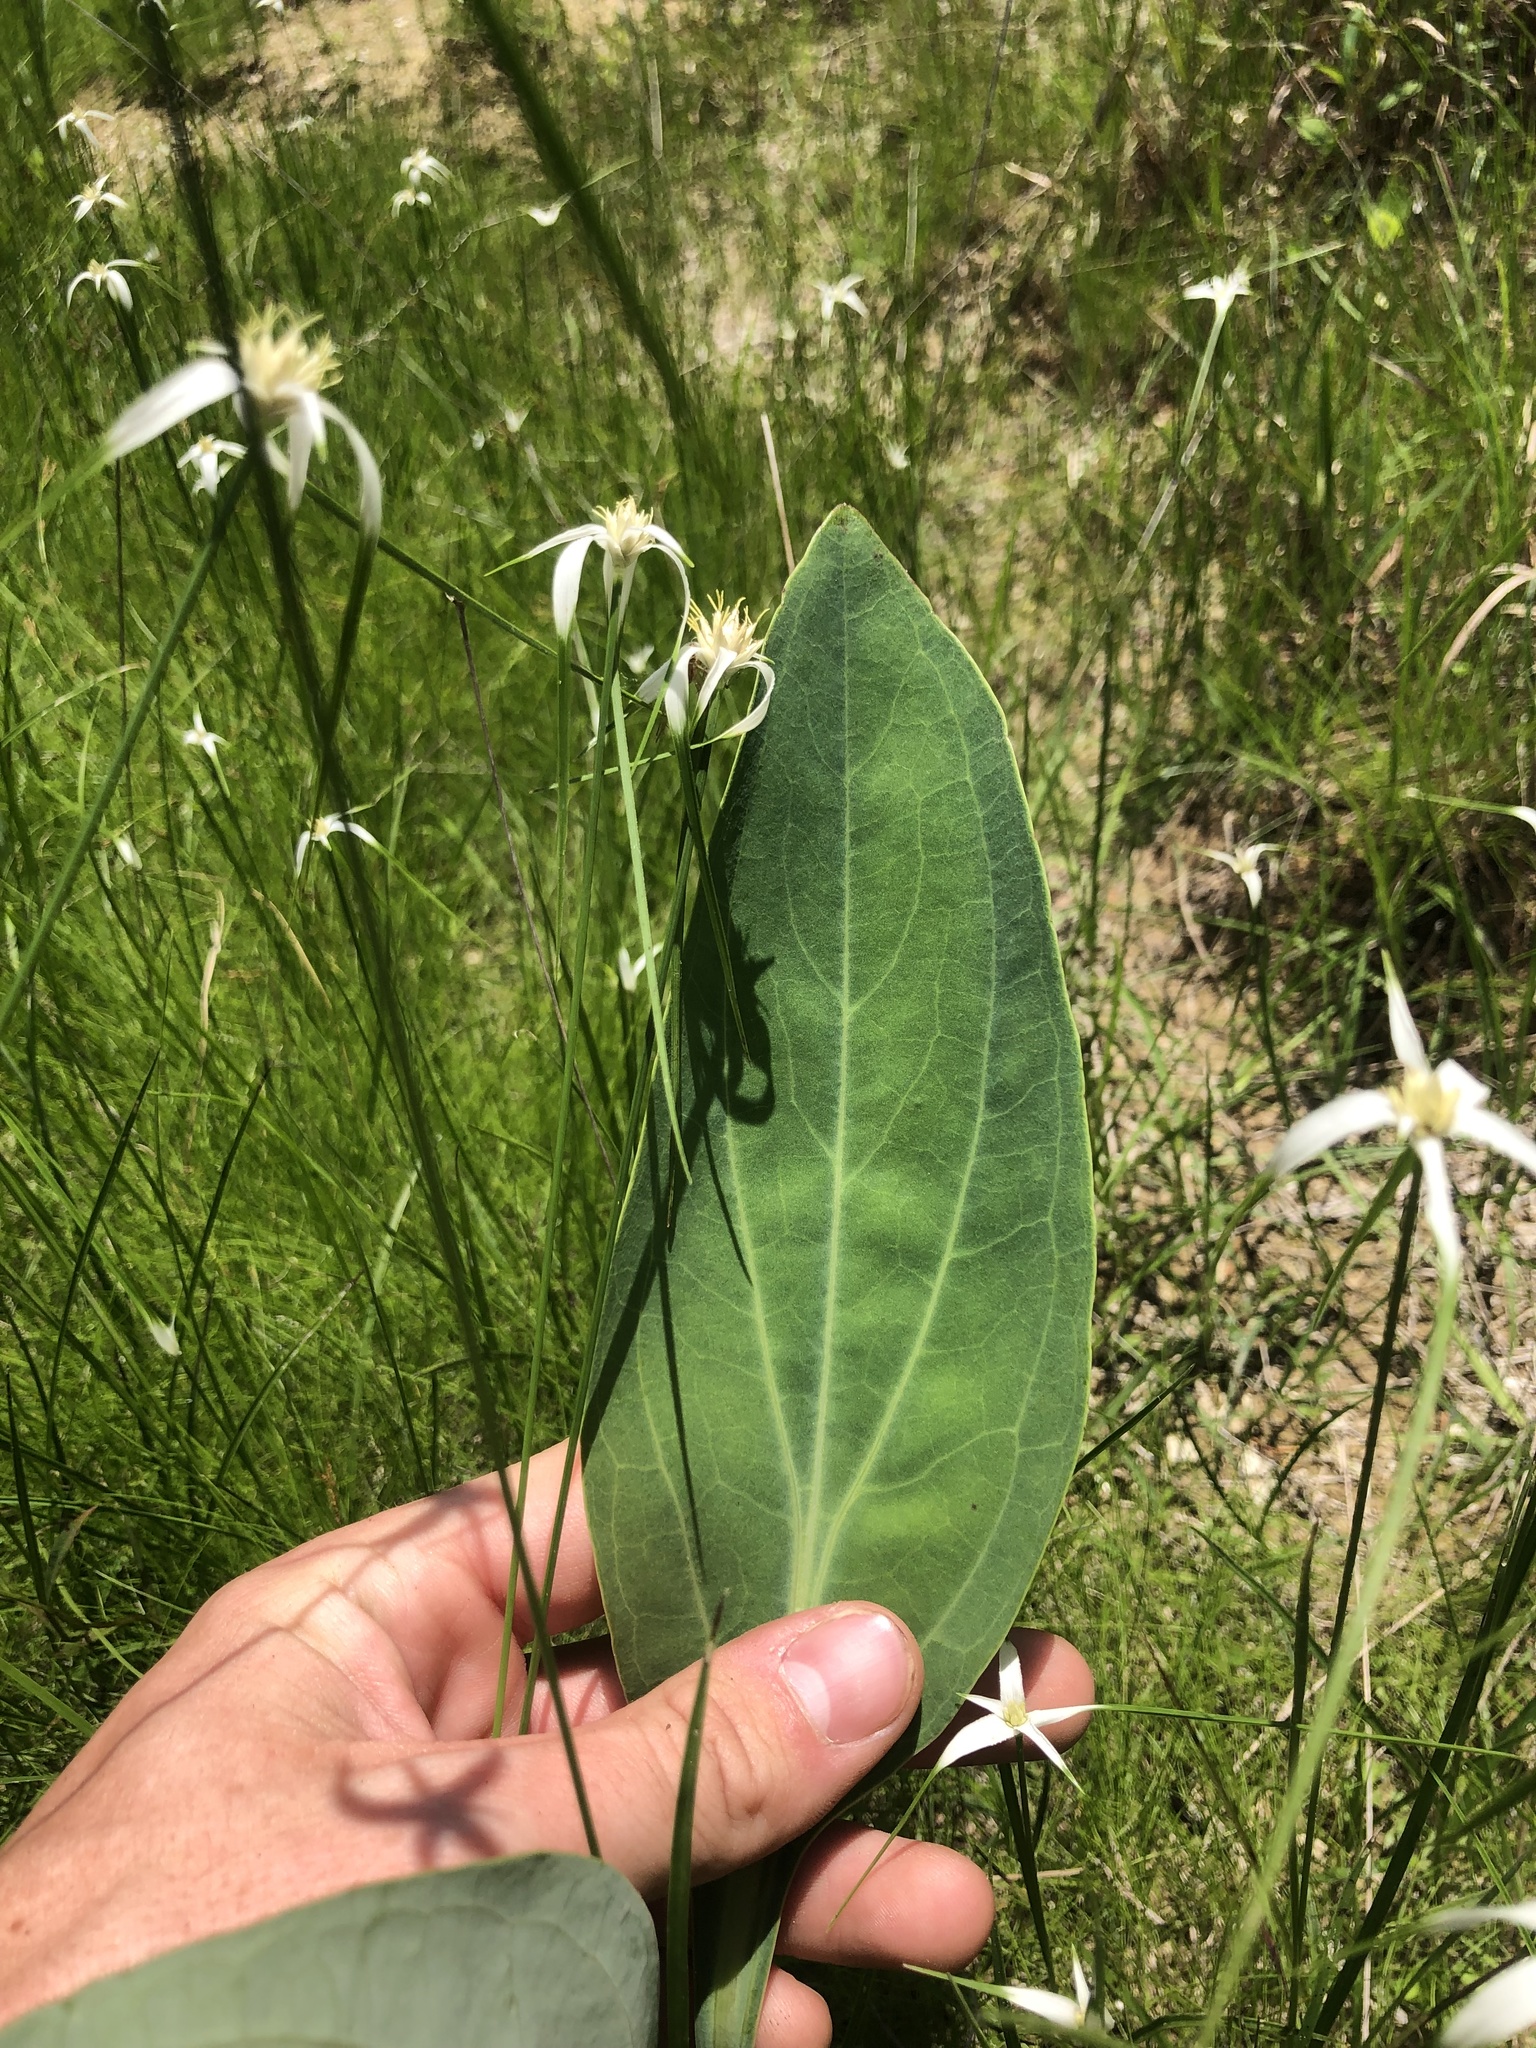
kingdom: Plantae
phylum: Tracheophyta
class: Liliopsida
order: Poales
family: Cyperaceae
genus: Rhynchospora
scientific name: Rhynchospora colorata
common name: Star sedge
